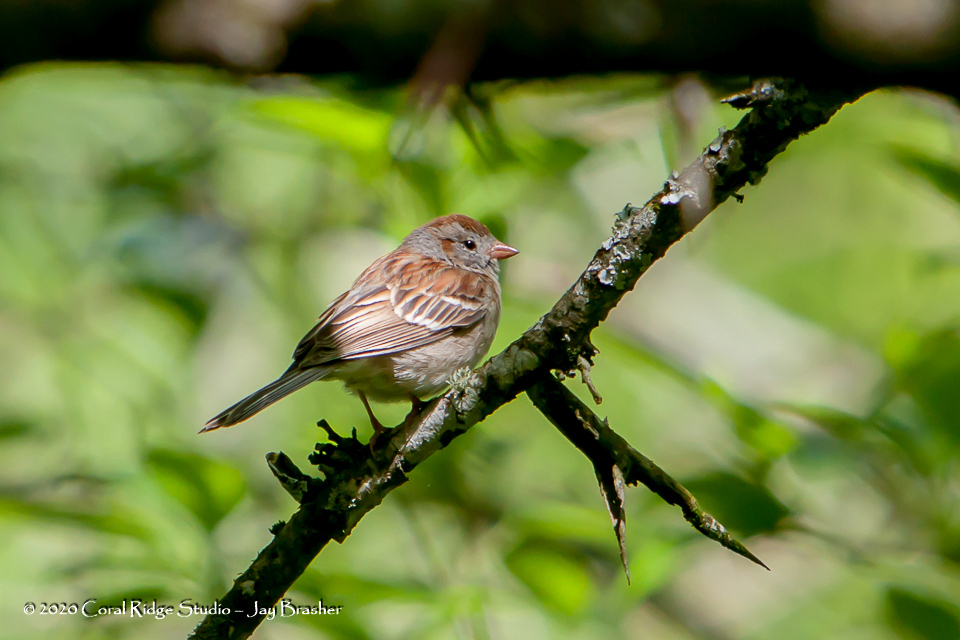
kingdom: Animalia
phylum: Chordata
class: Aves
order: Passeriformes
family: Passerellidae
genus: Spizella
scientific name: Spizella pusilla
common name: Field sparrow
